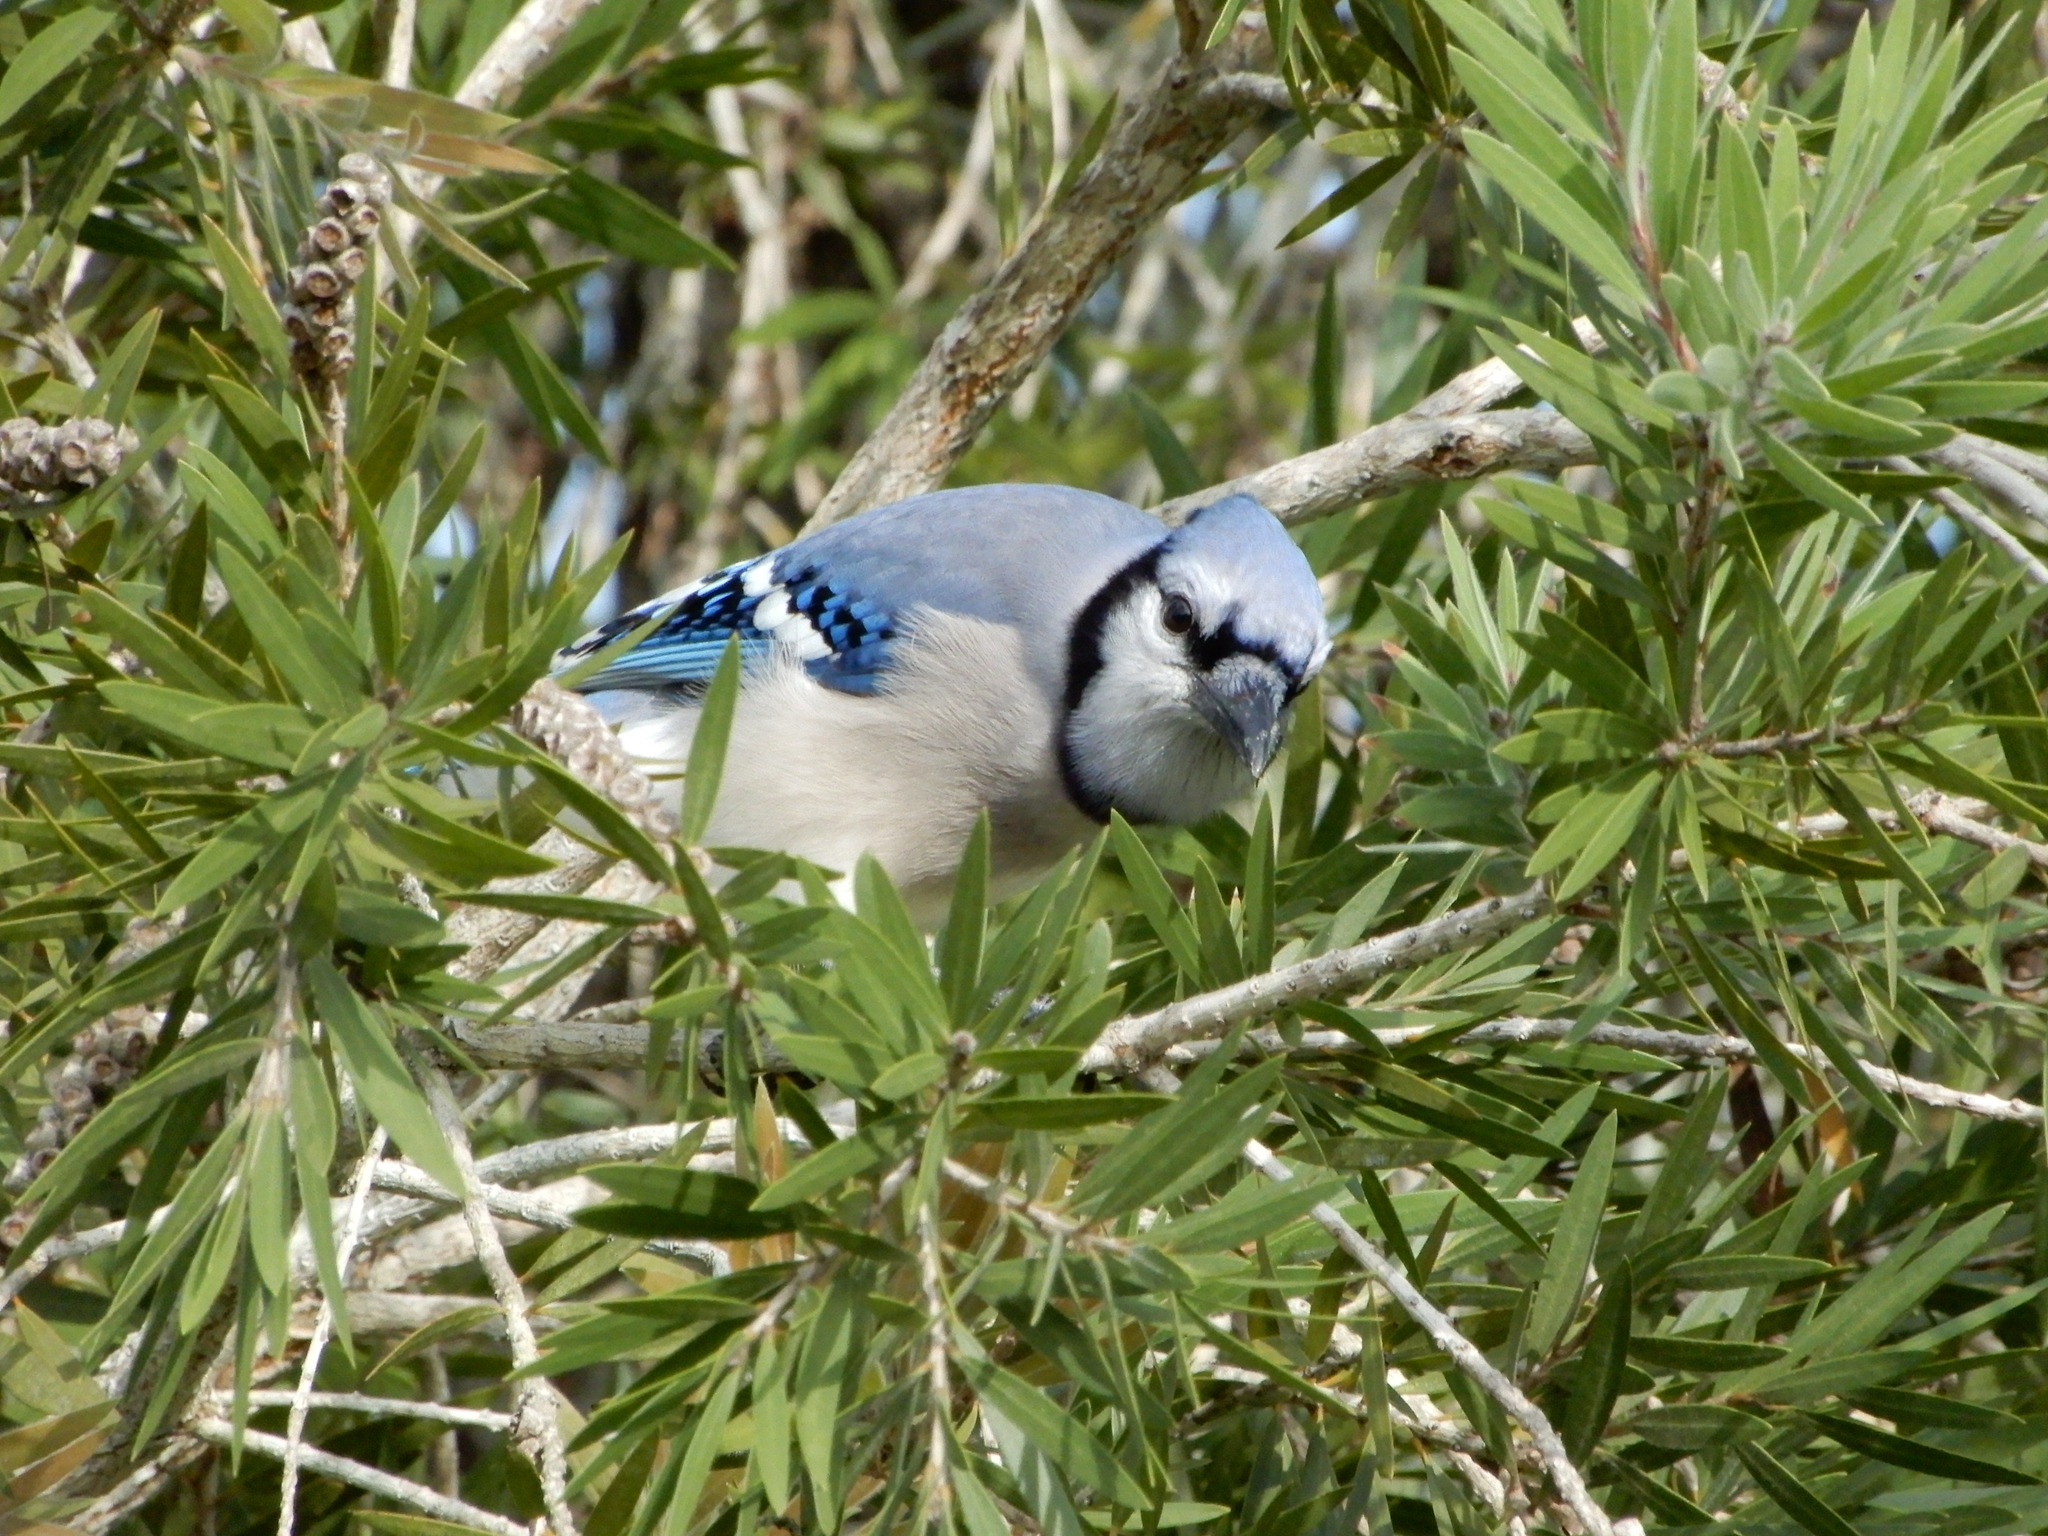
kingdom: Animalia
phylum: Chordata
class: Aves
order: Passeriformes
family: Corvidae
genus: Cyanocitta
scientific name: Cyanocitta cristata
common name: Blue jay
